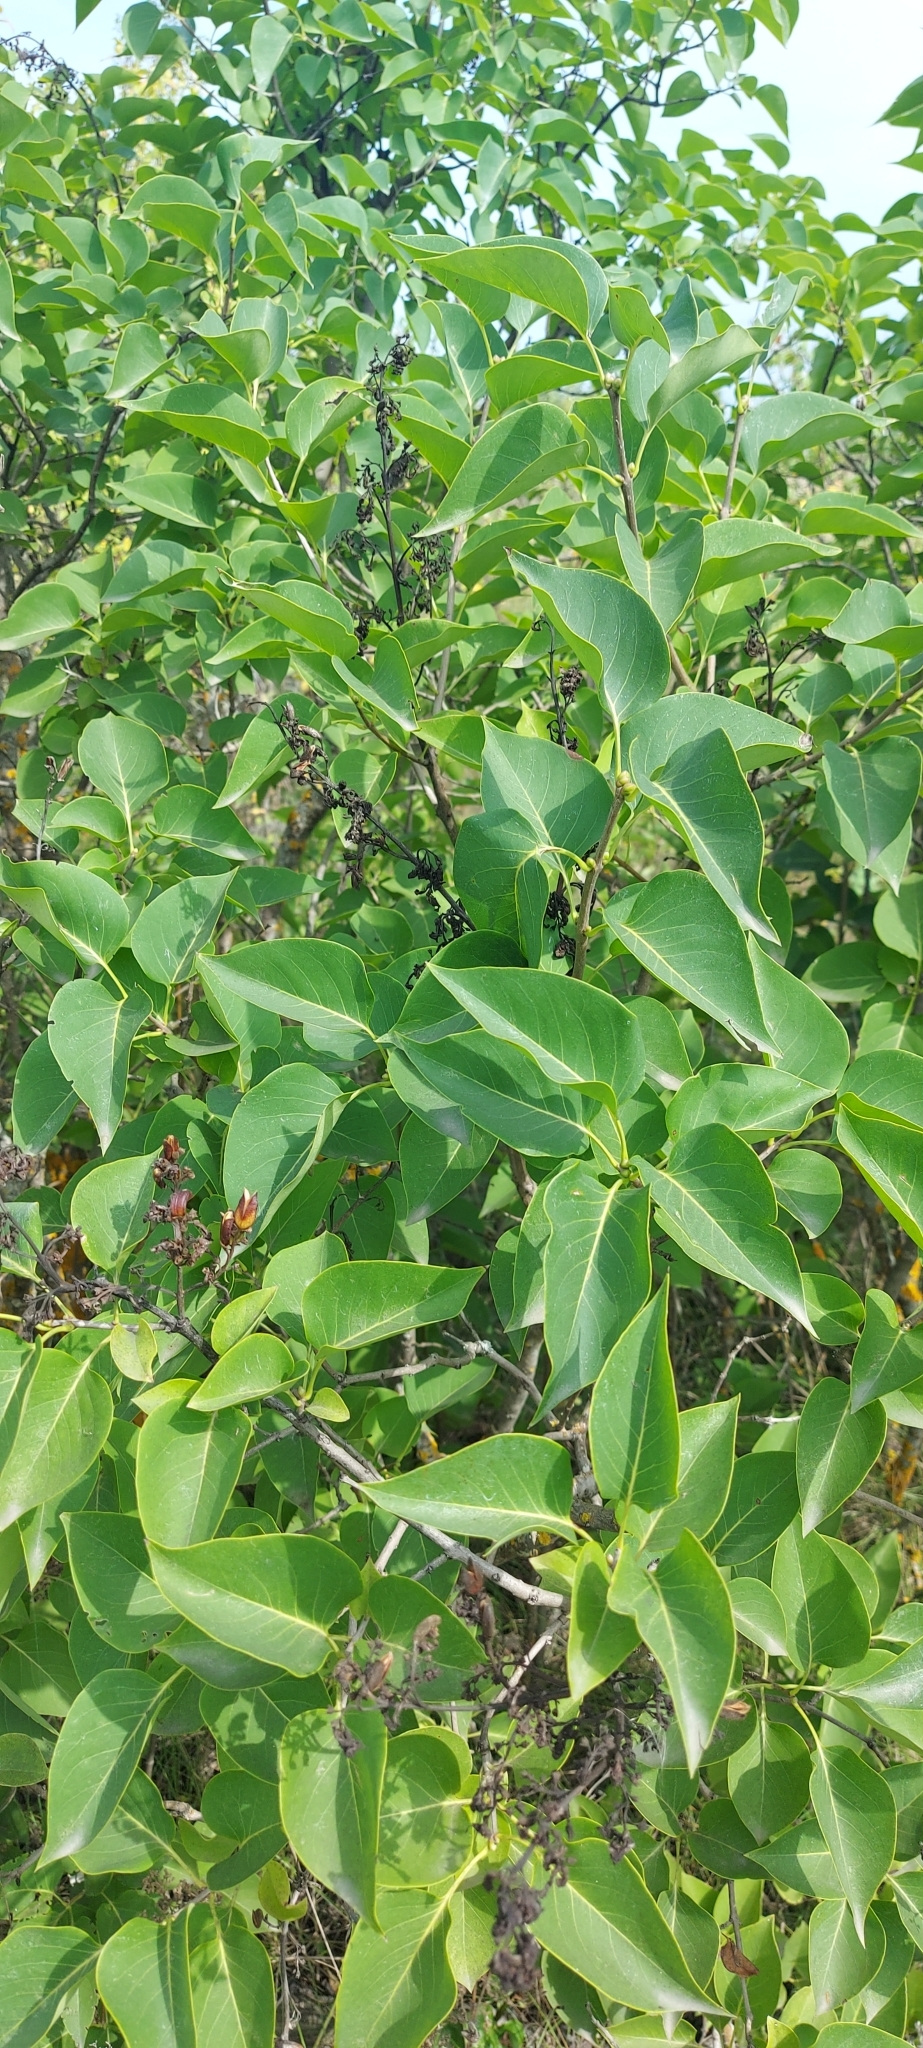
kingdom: Plantae
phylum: Tracheophyta
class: Magnoliopsida
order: Lamiales
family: Oleaceae
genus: Syringa
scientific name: Syringa vulgaris
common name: Common lilac
